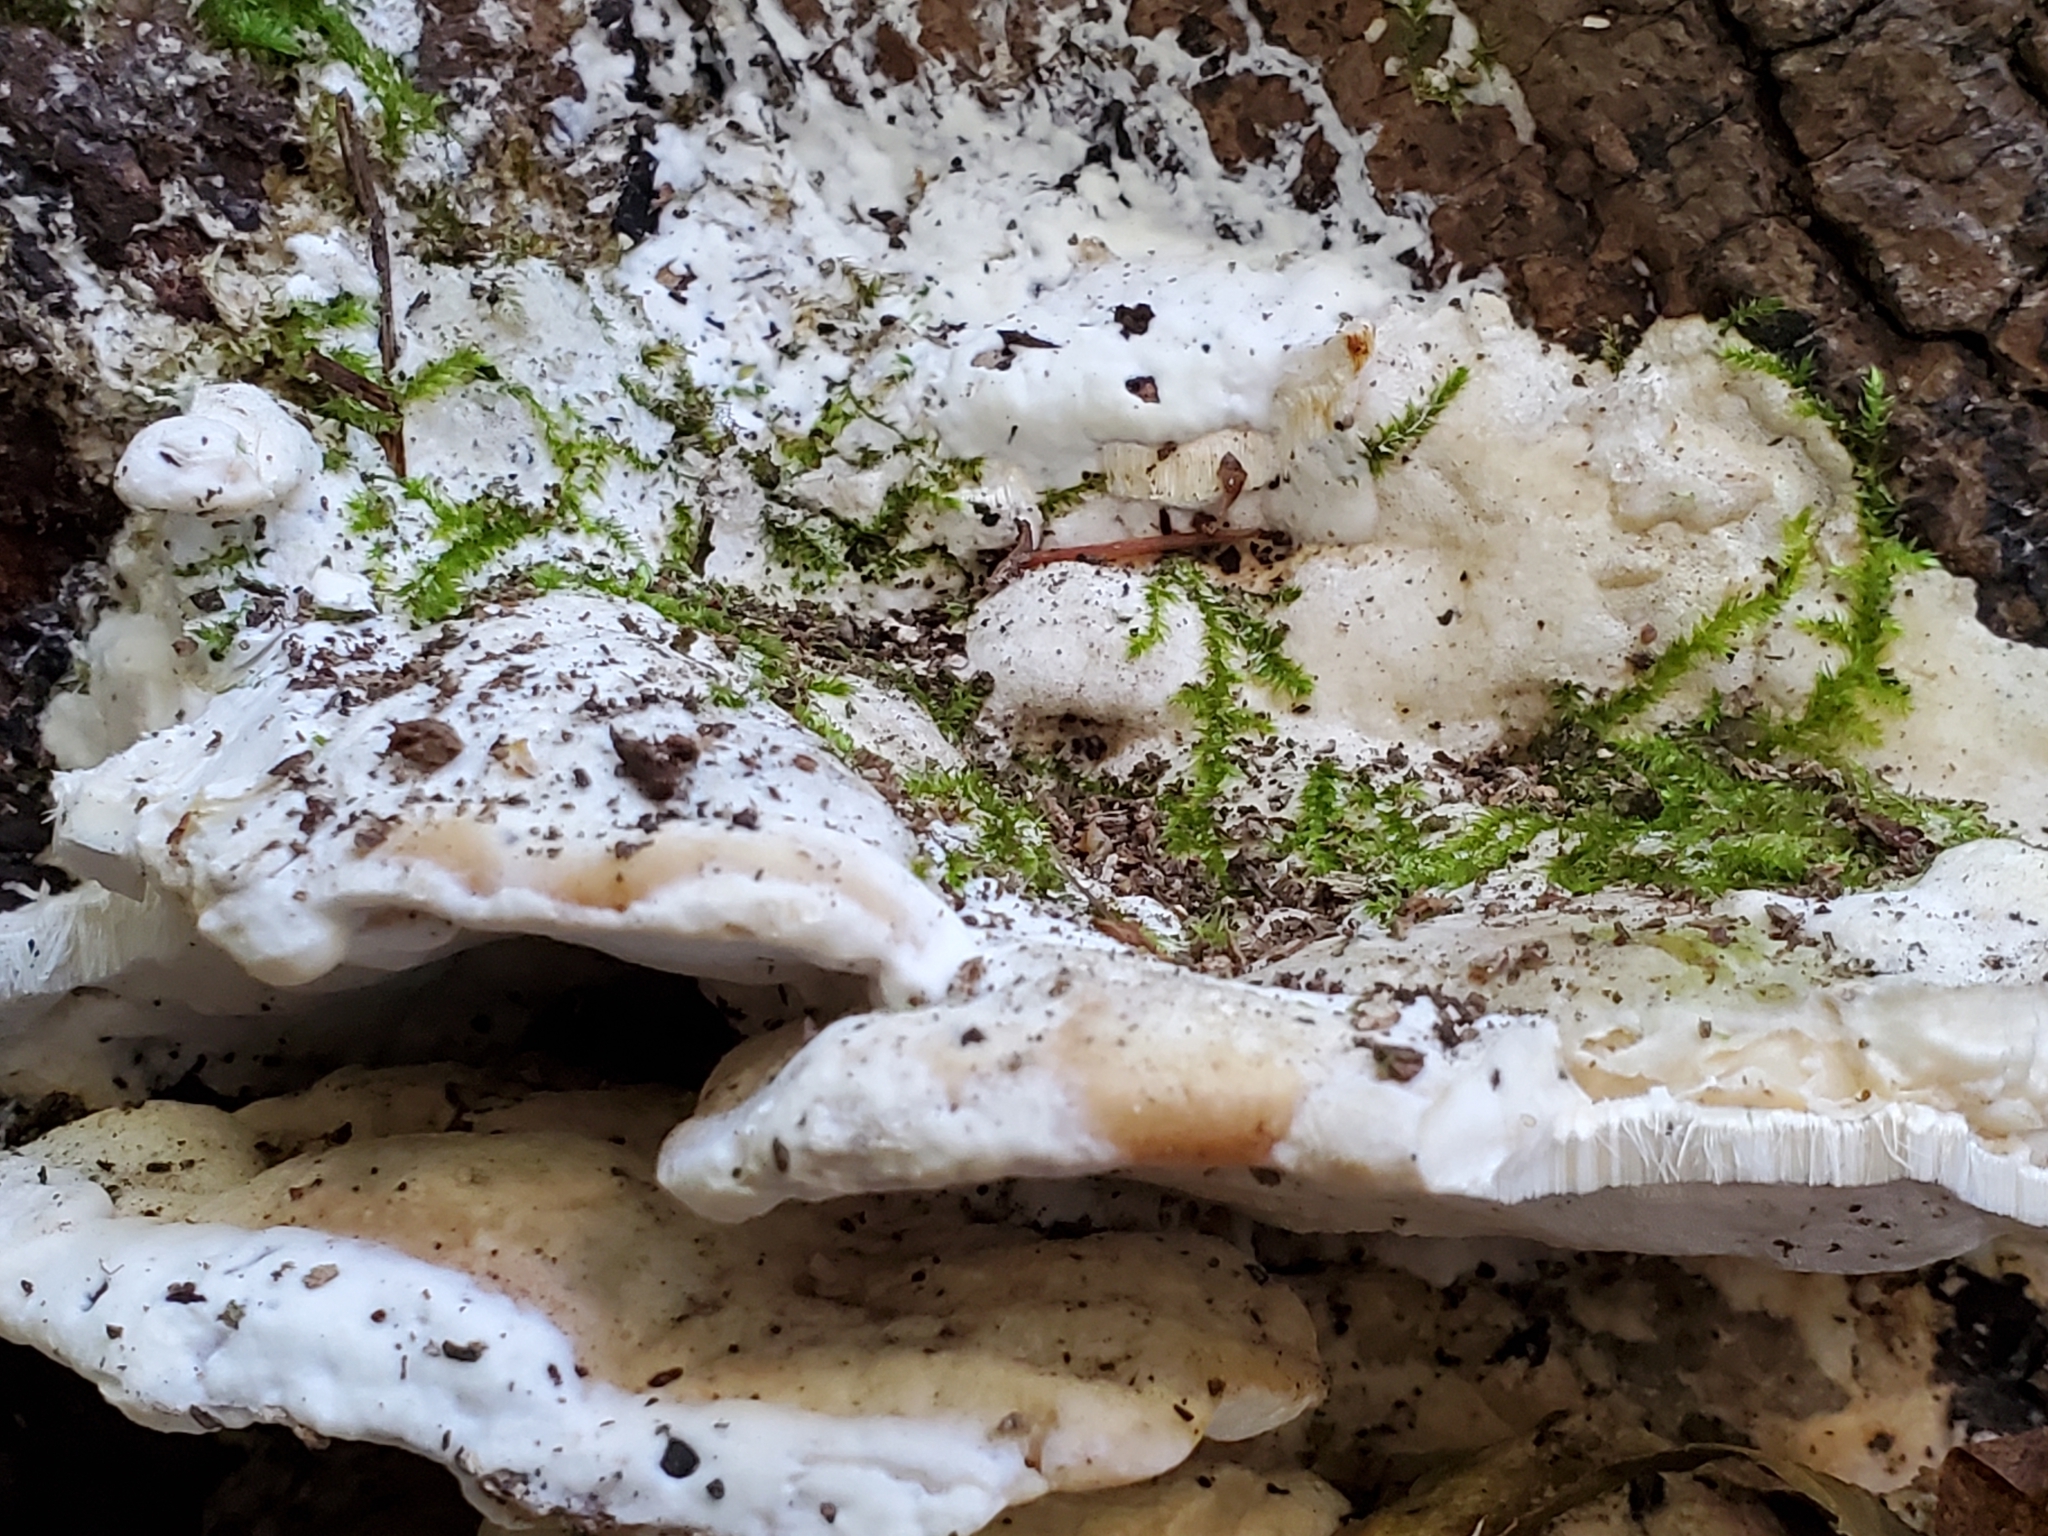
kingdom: Fungi
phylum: Basidiomycota
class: Agaricomycetes
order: Hymenochaetales
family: Oxyporaceae
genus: Oxyporus
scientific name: Oxyporus populinus
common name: Poplar bracket
